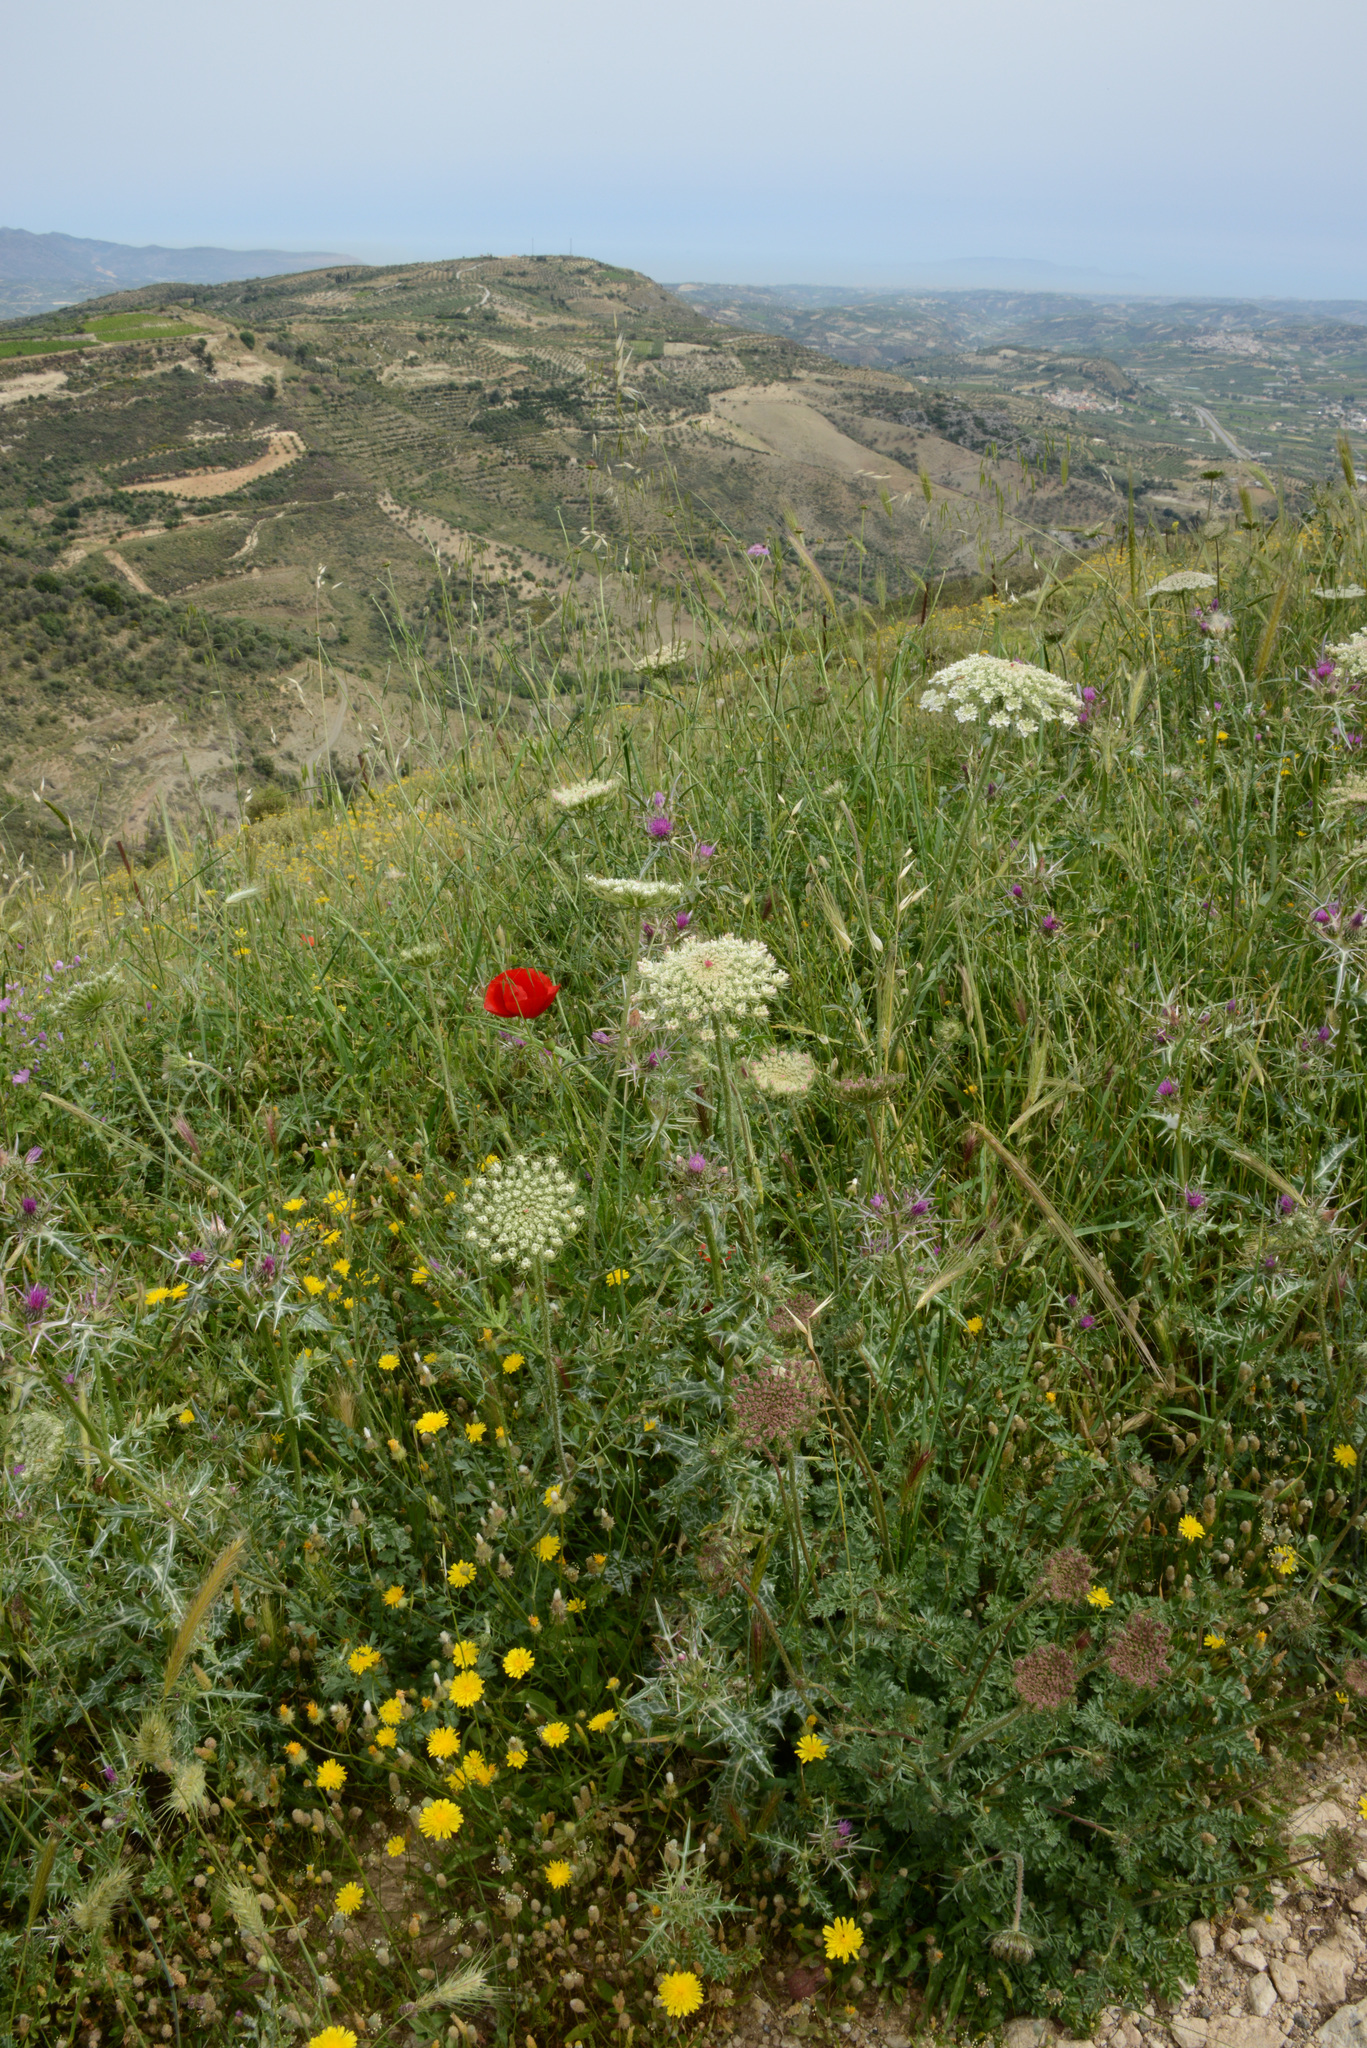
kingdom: Plantae
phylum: Tracheophyta
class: Magnoliopsida
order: Apiales
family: Apiaceae
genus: Daucus
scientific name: Daucus carota
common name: Wild carrot
